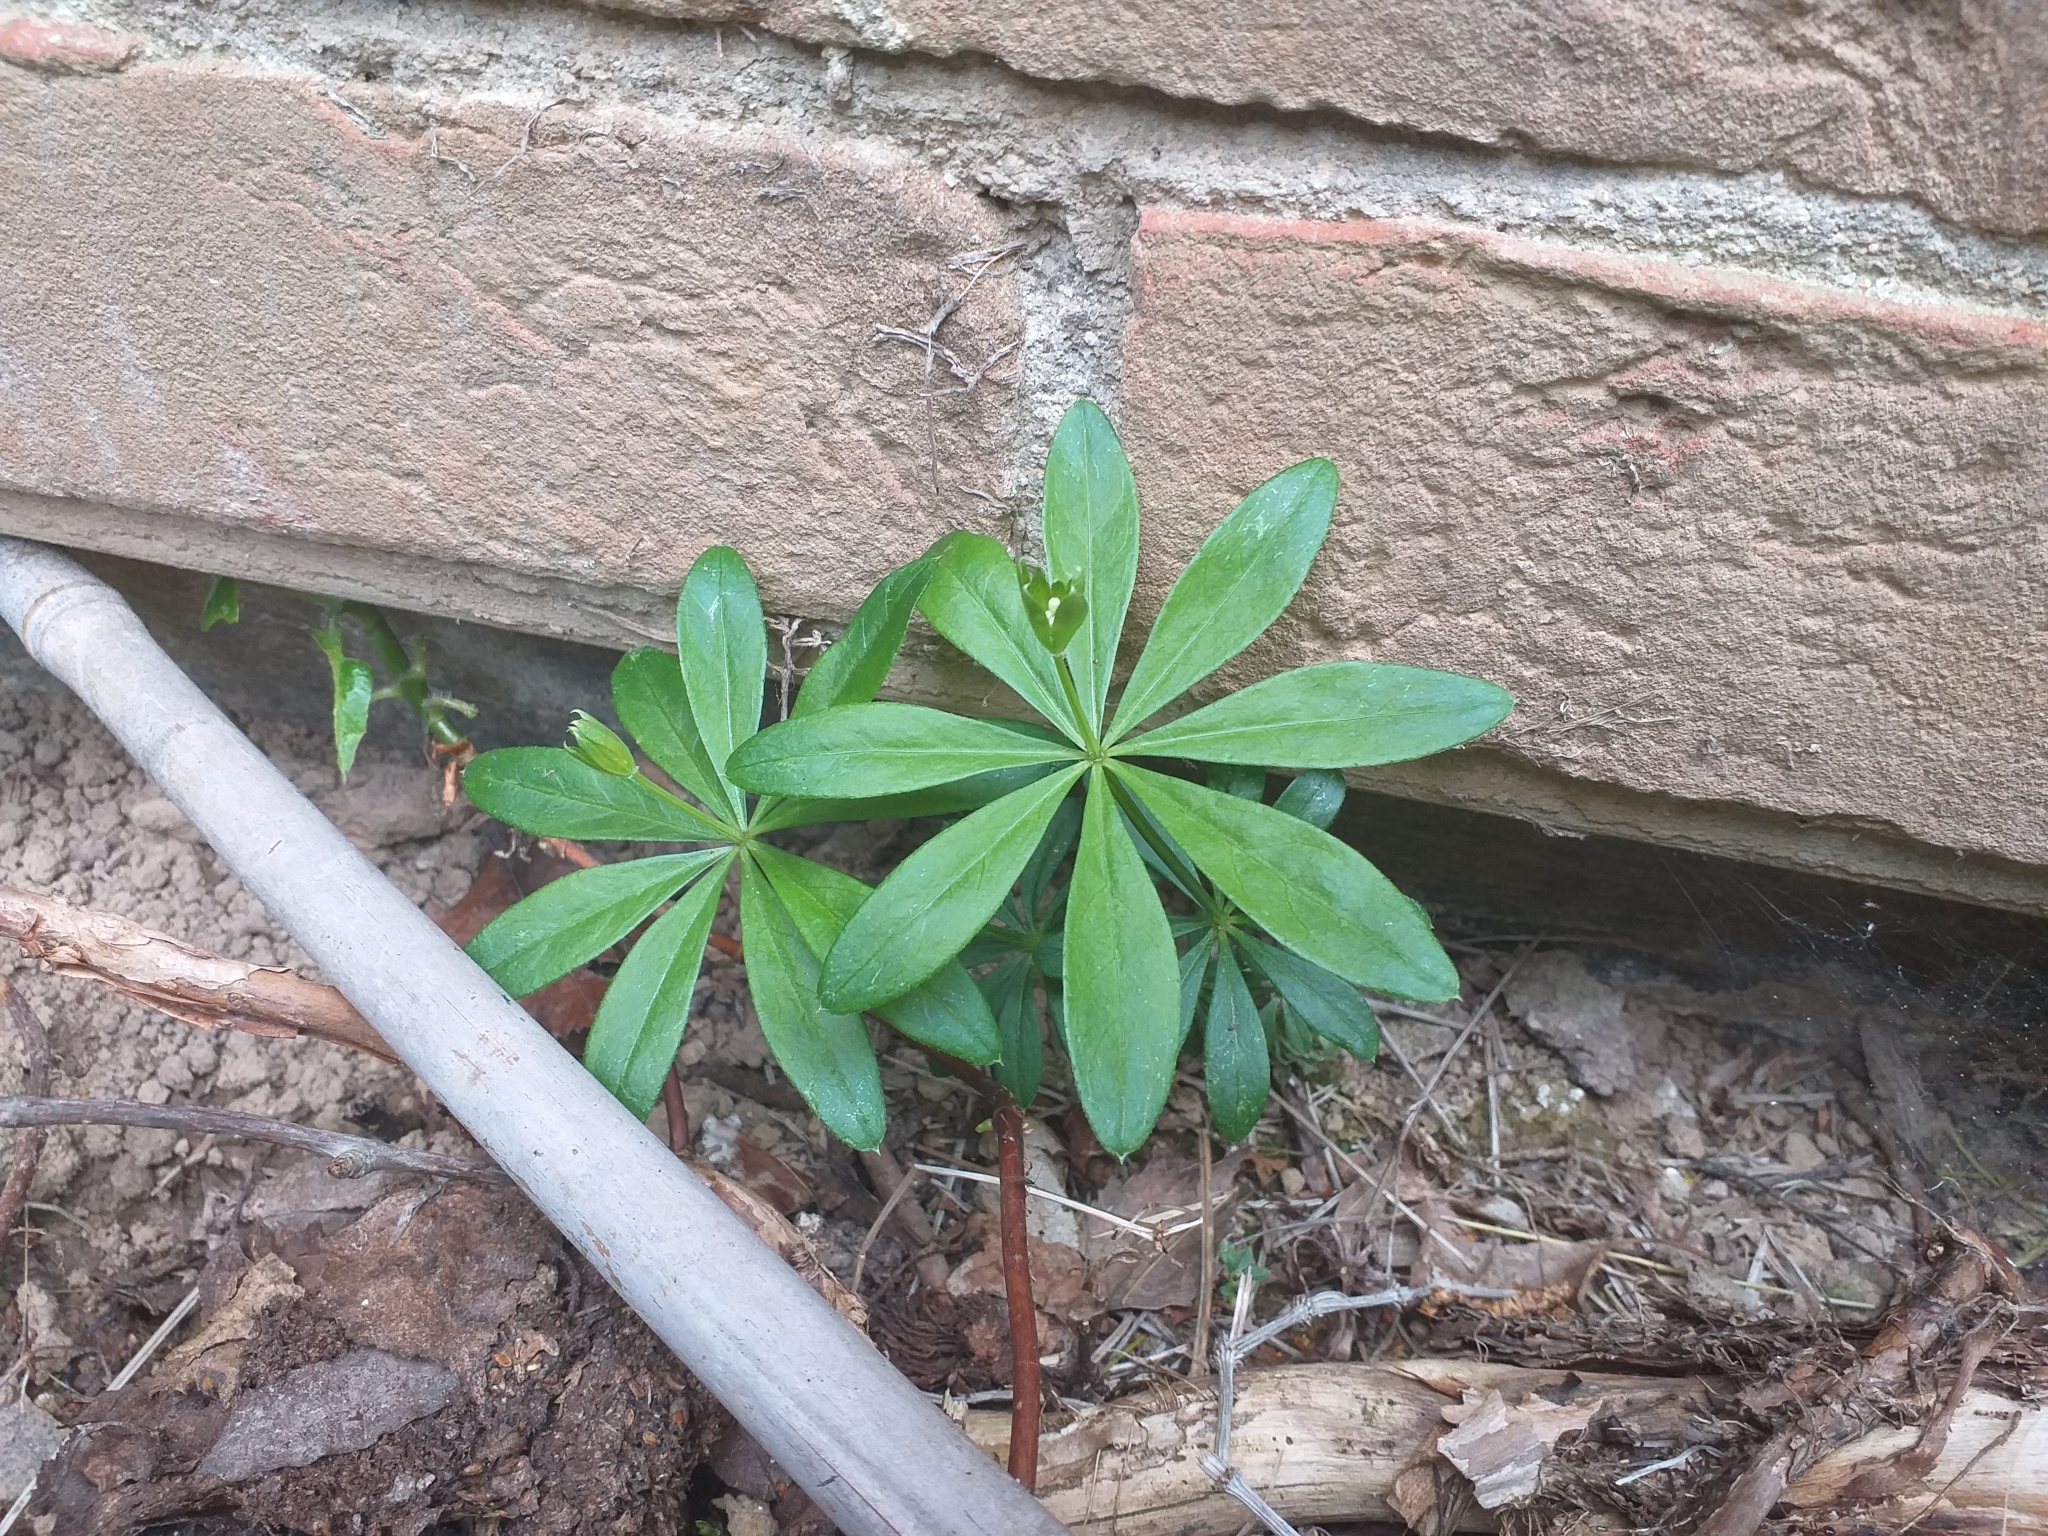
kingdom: Plantae
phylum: Tracheophyta
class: Magnoliopsida
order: Gentianales
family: Rubiaceae
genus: Galium
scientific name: Galium odoratum
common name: Sweet woodruff
